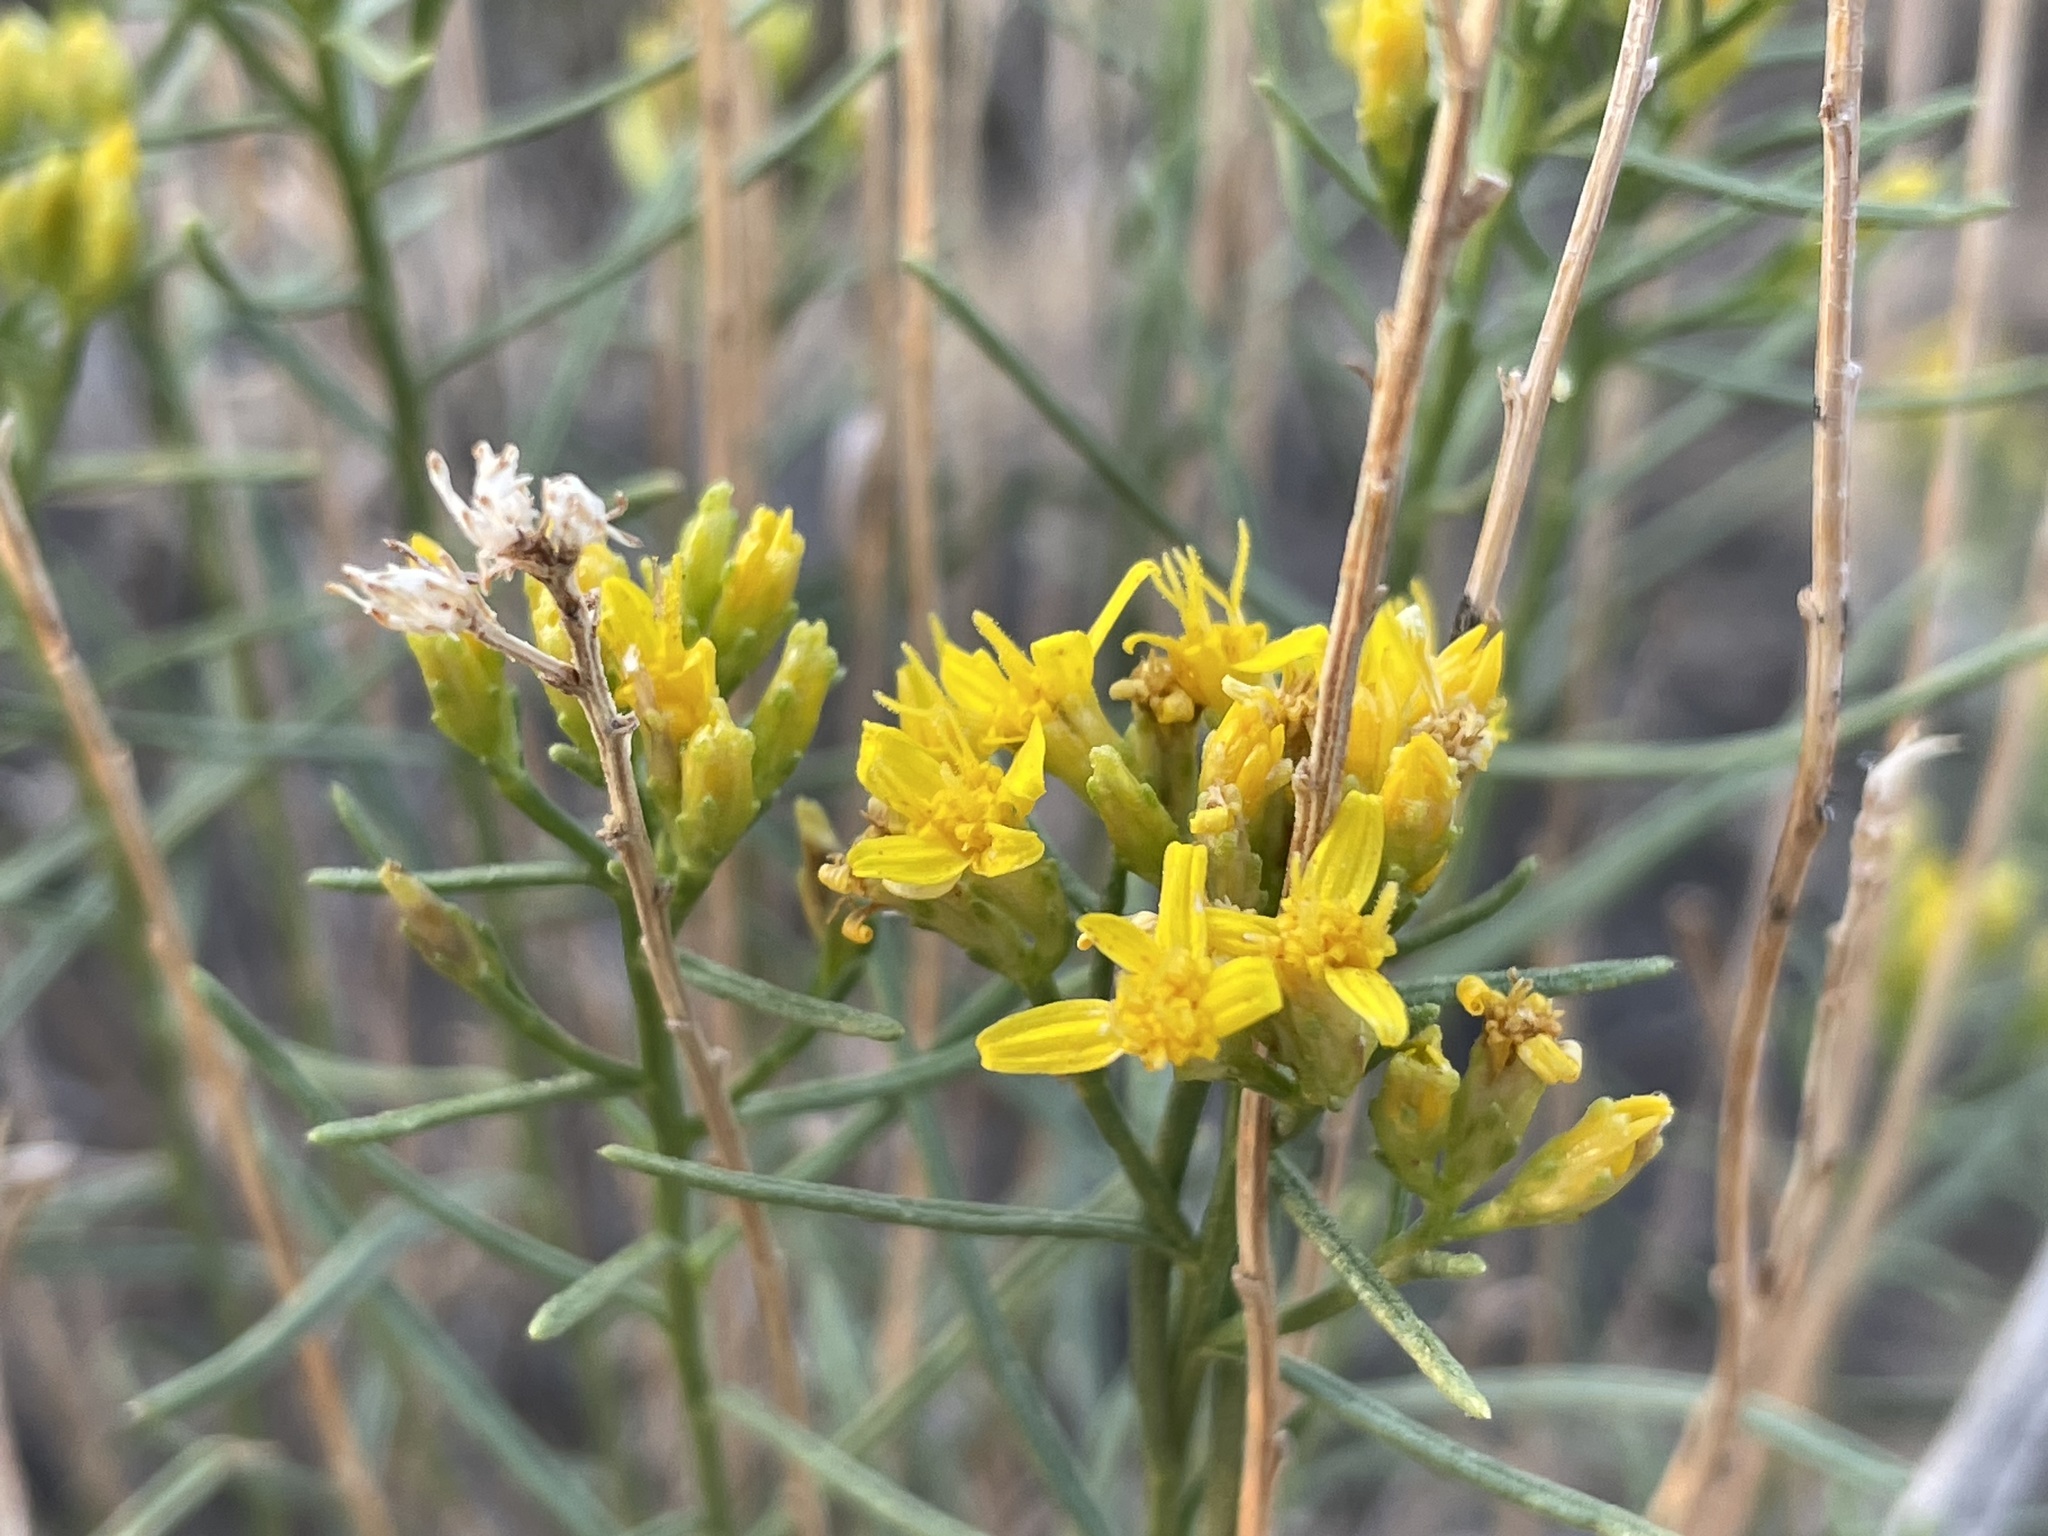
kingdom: Plantae
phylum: Tracheophyta
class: Magnoliopsida
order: Asterales
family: Asteraceae
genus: Gutierrezia
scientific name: Gutierrezia sarothrae
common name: Broom snakeweed
